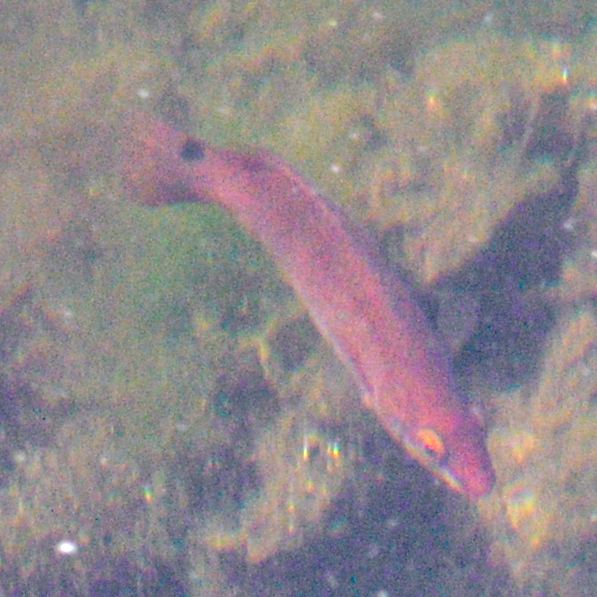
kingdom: Animalia
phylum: Chordata
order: Perciformes
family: Labridae
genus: Ctenolabrus
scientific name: Ctenolabrus rupestris
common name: Goldsinny
